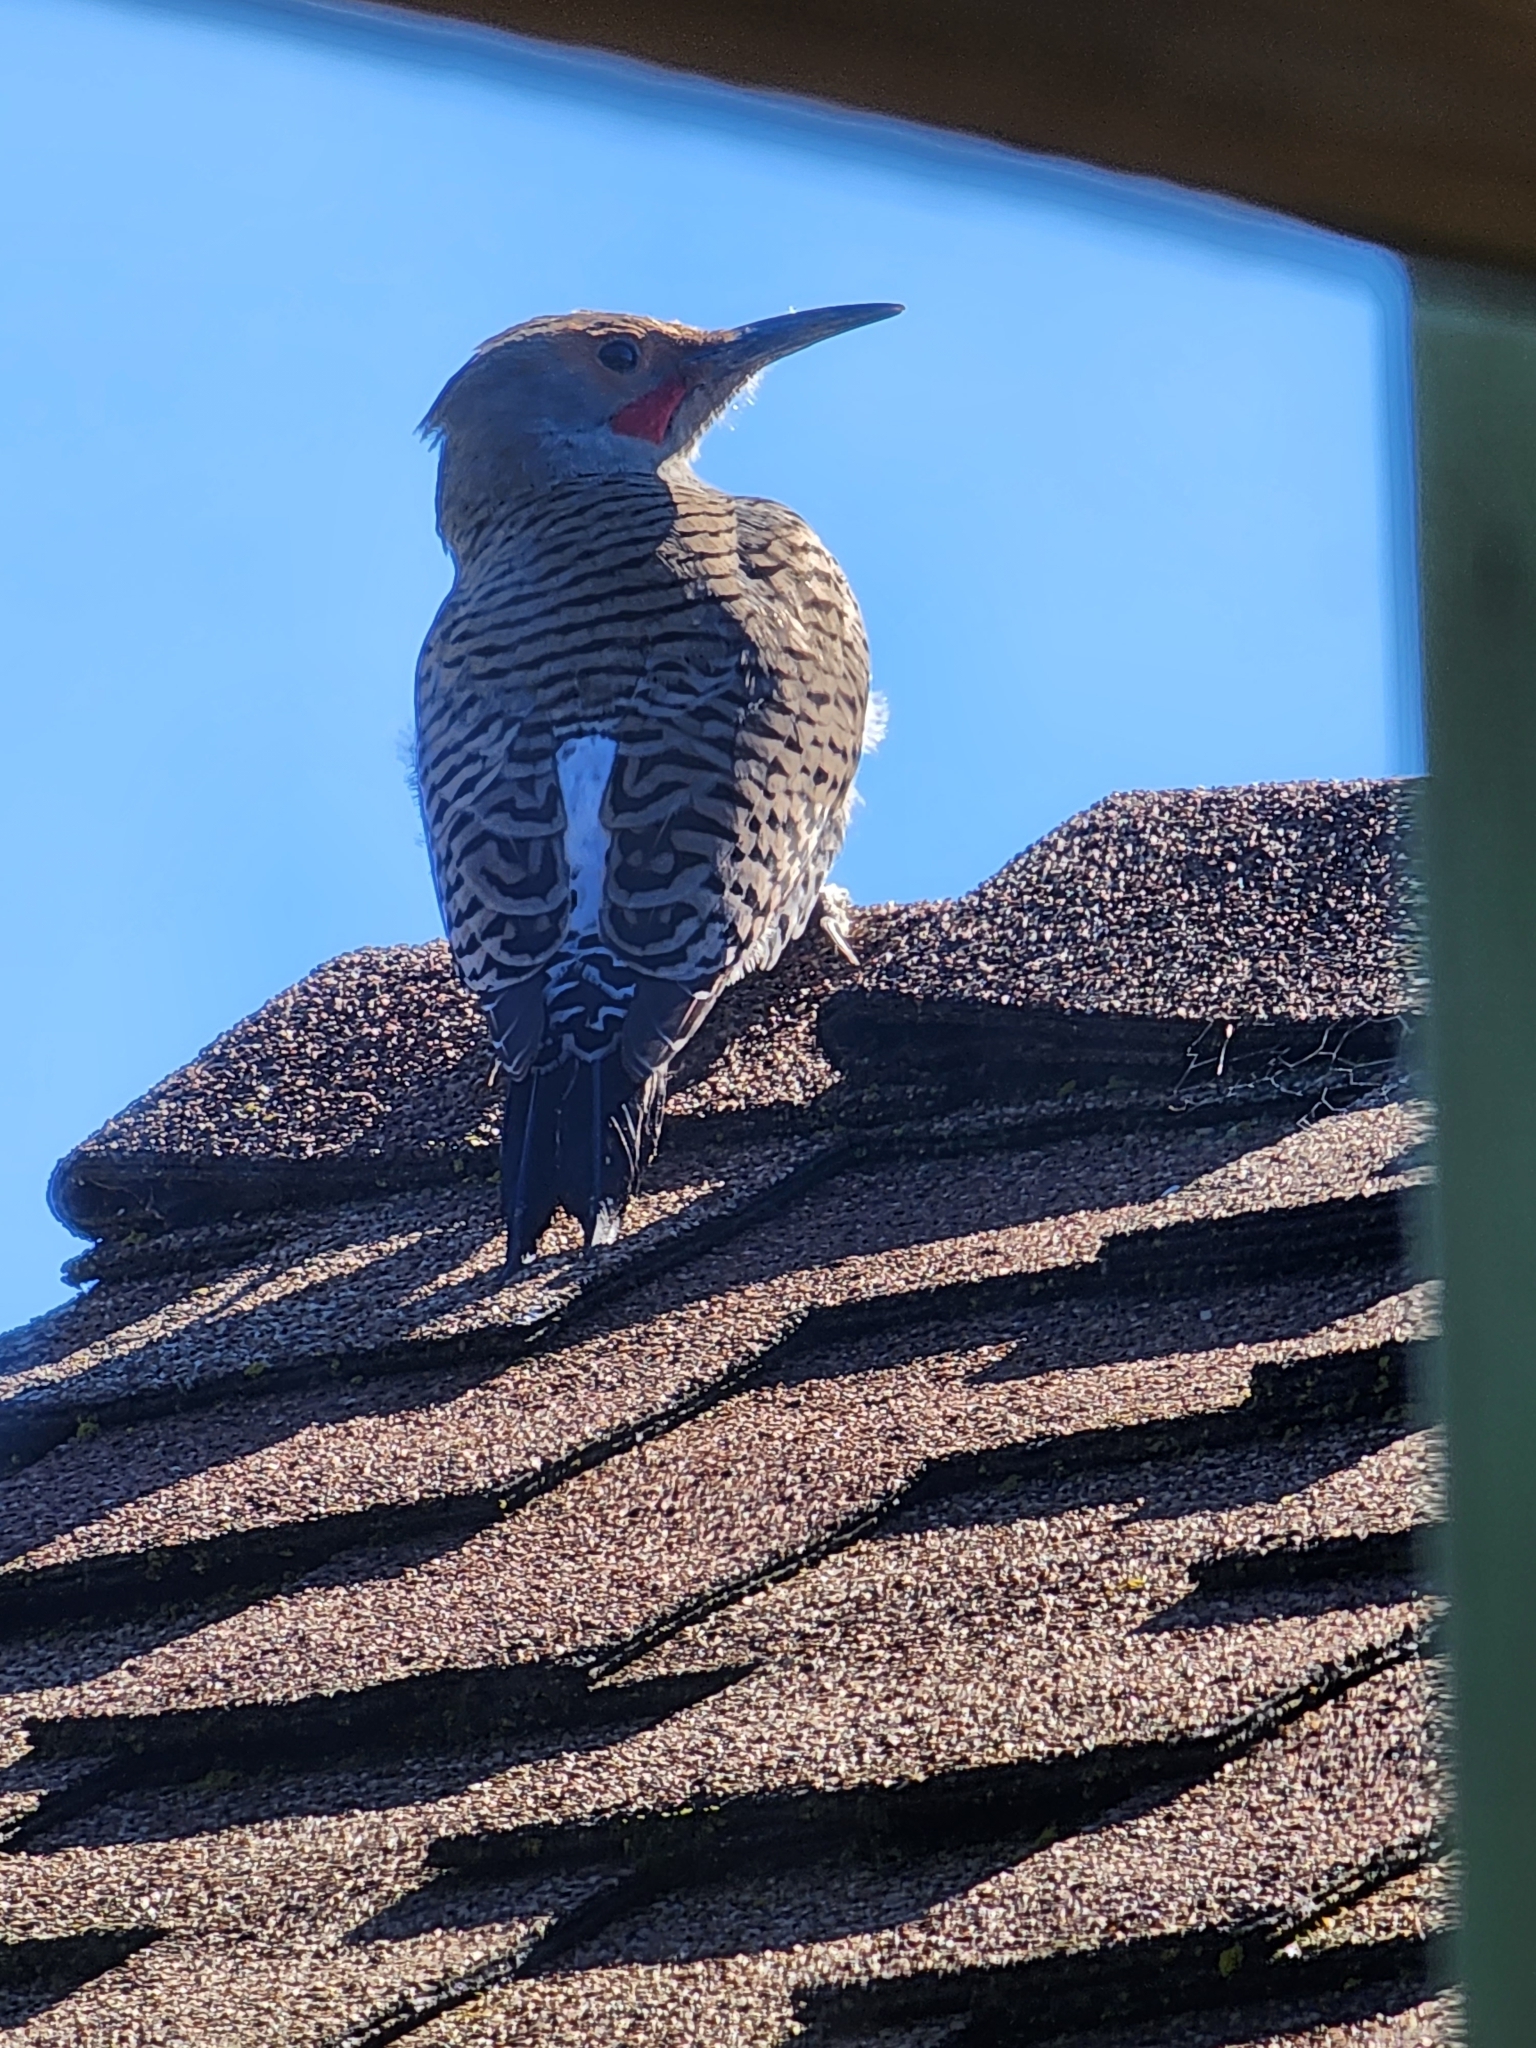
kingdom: Animalia
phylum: Chordata
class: Aves
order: Piciformes
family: Picidae
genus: Colaptes
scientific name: Colaptes auratus
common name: Northern flicker
